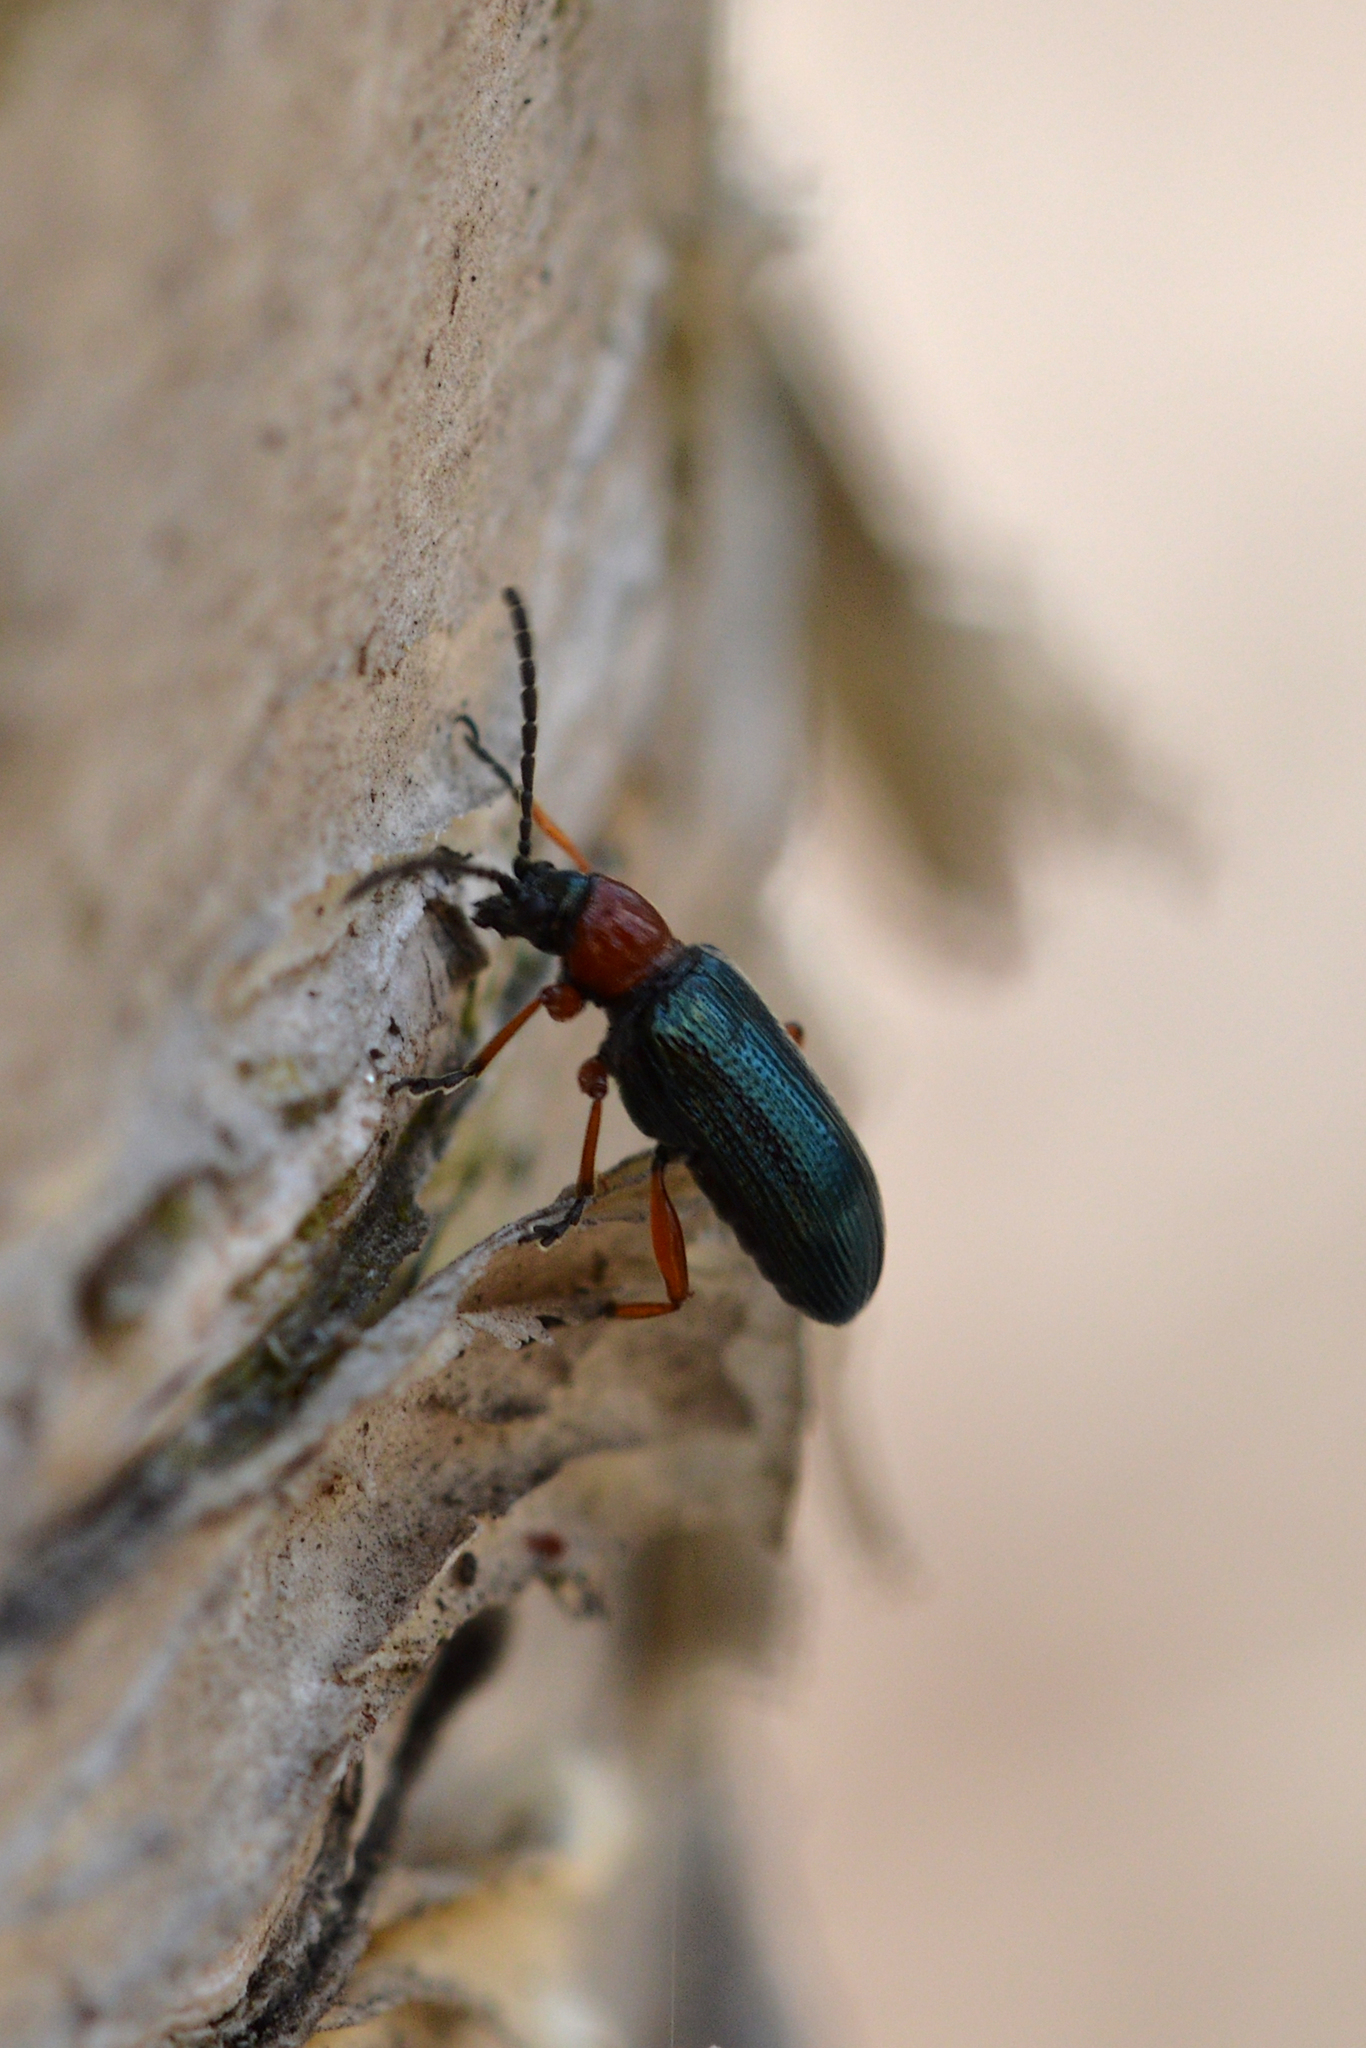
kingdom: Animalia
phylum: Arthropoda
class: Insecta
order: Coleoptera
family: Chrysomelidae
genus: Oulema
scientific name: Oulema melanopus
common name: Cereal leaf beetle
